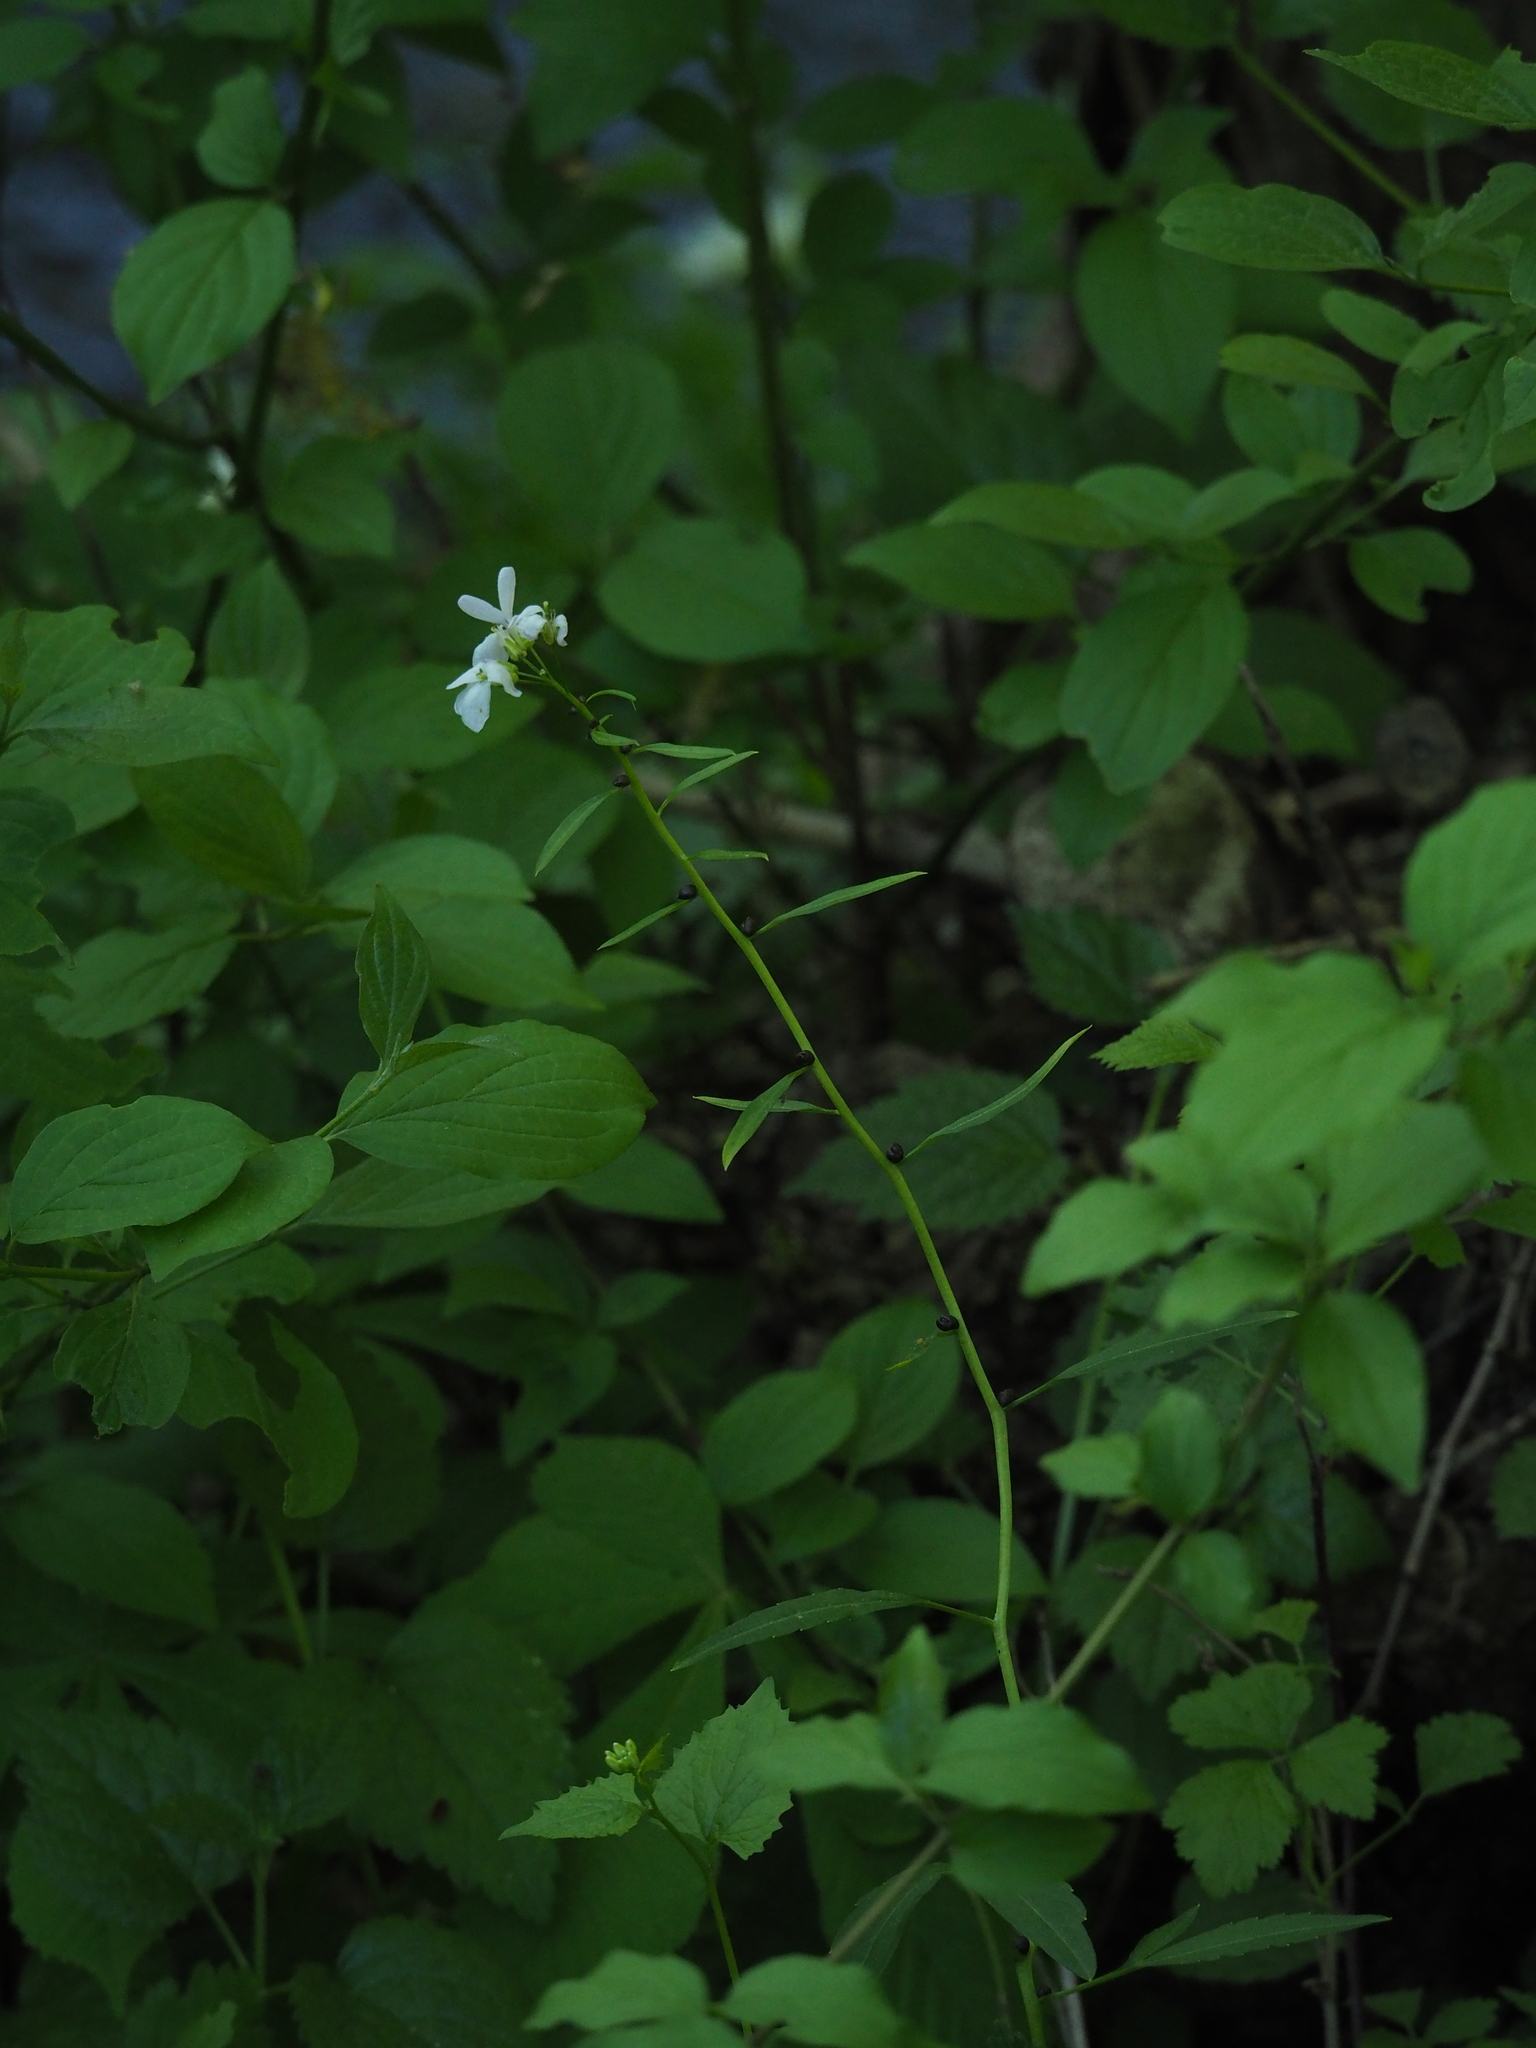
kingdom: Plantae
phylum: Tracheophyta
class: Magnoliopsida
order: Brassicales
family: Brassicaceae
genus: Cardamine
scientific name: Cardamine bulbifera
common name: Coralroot bittercress
